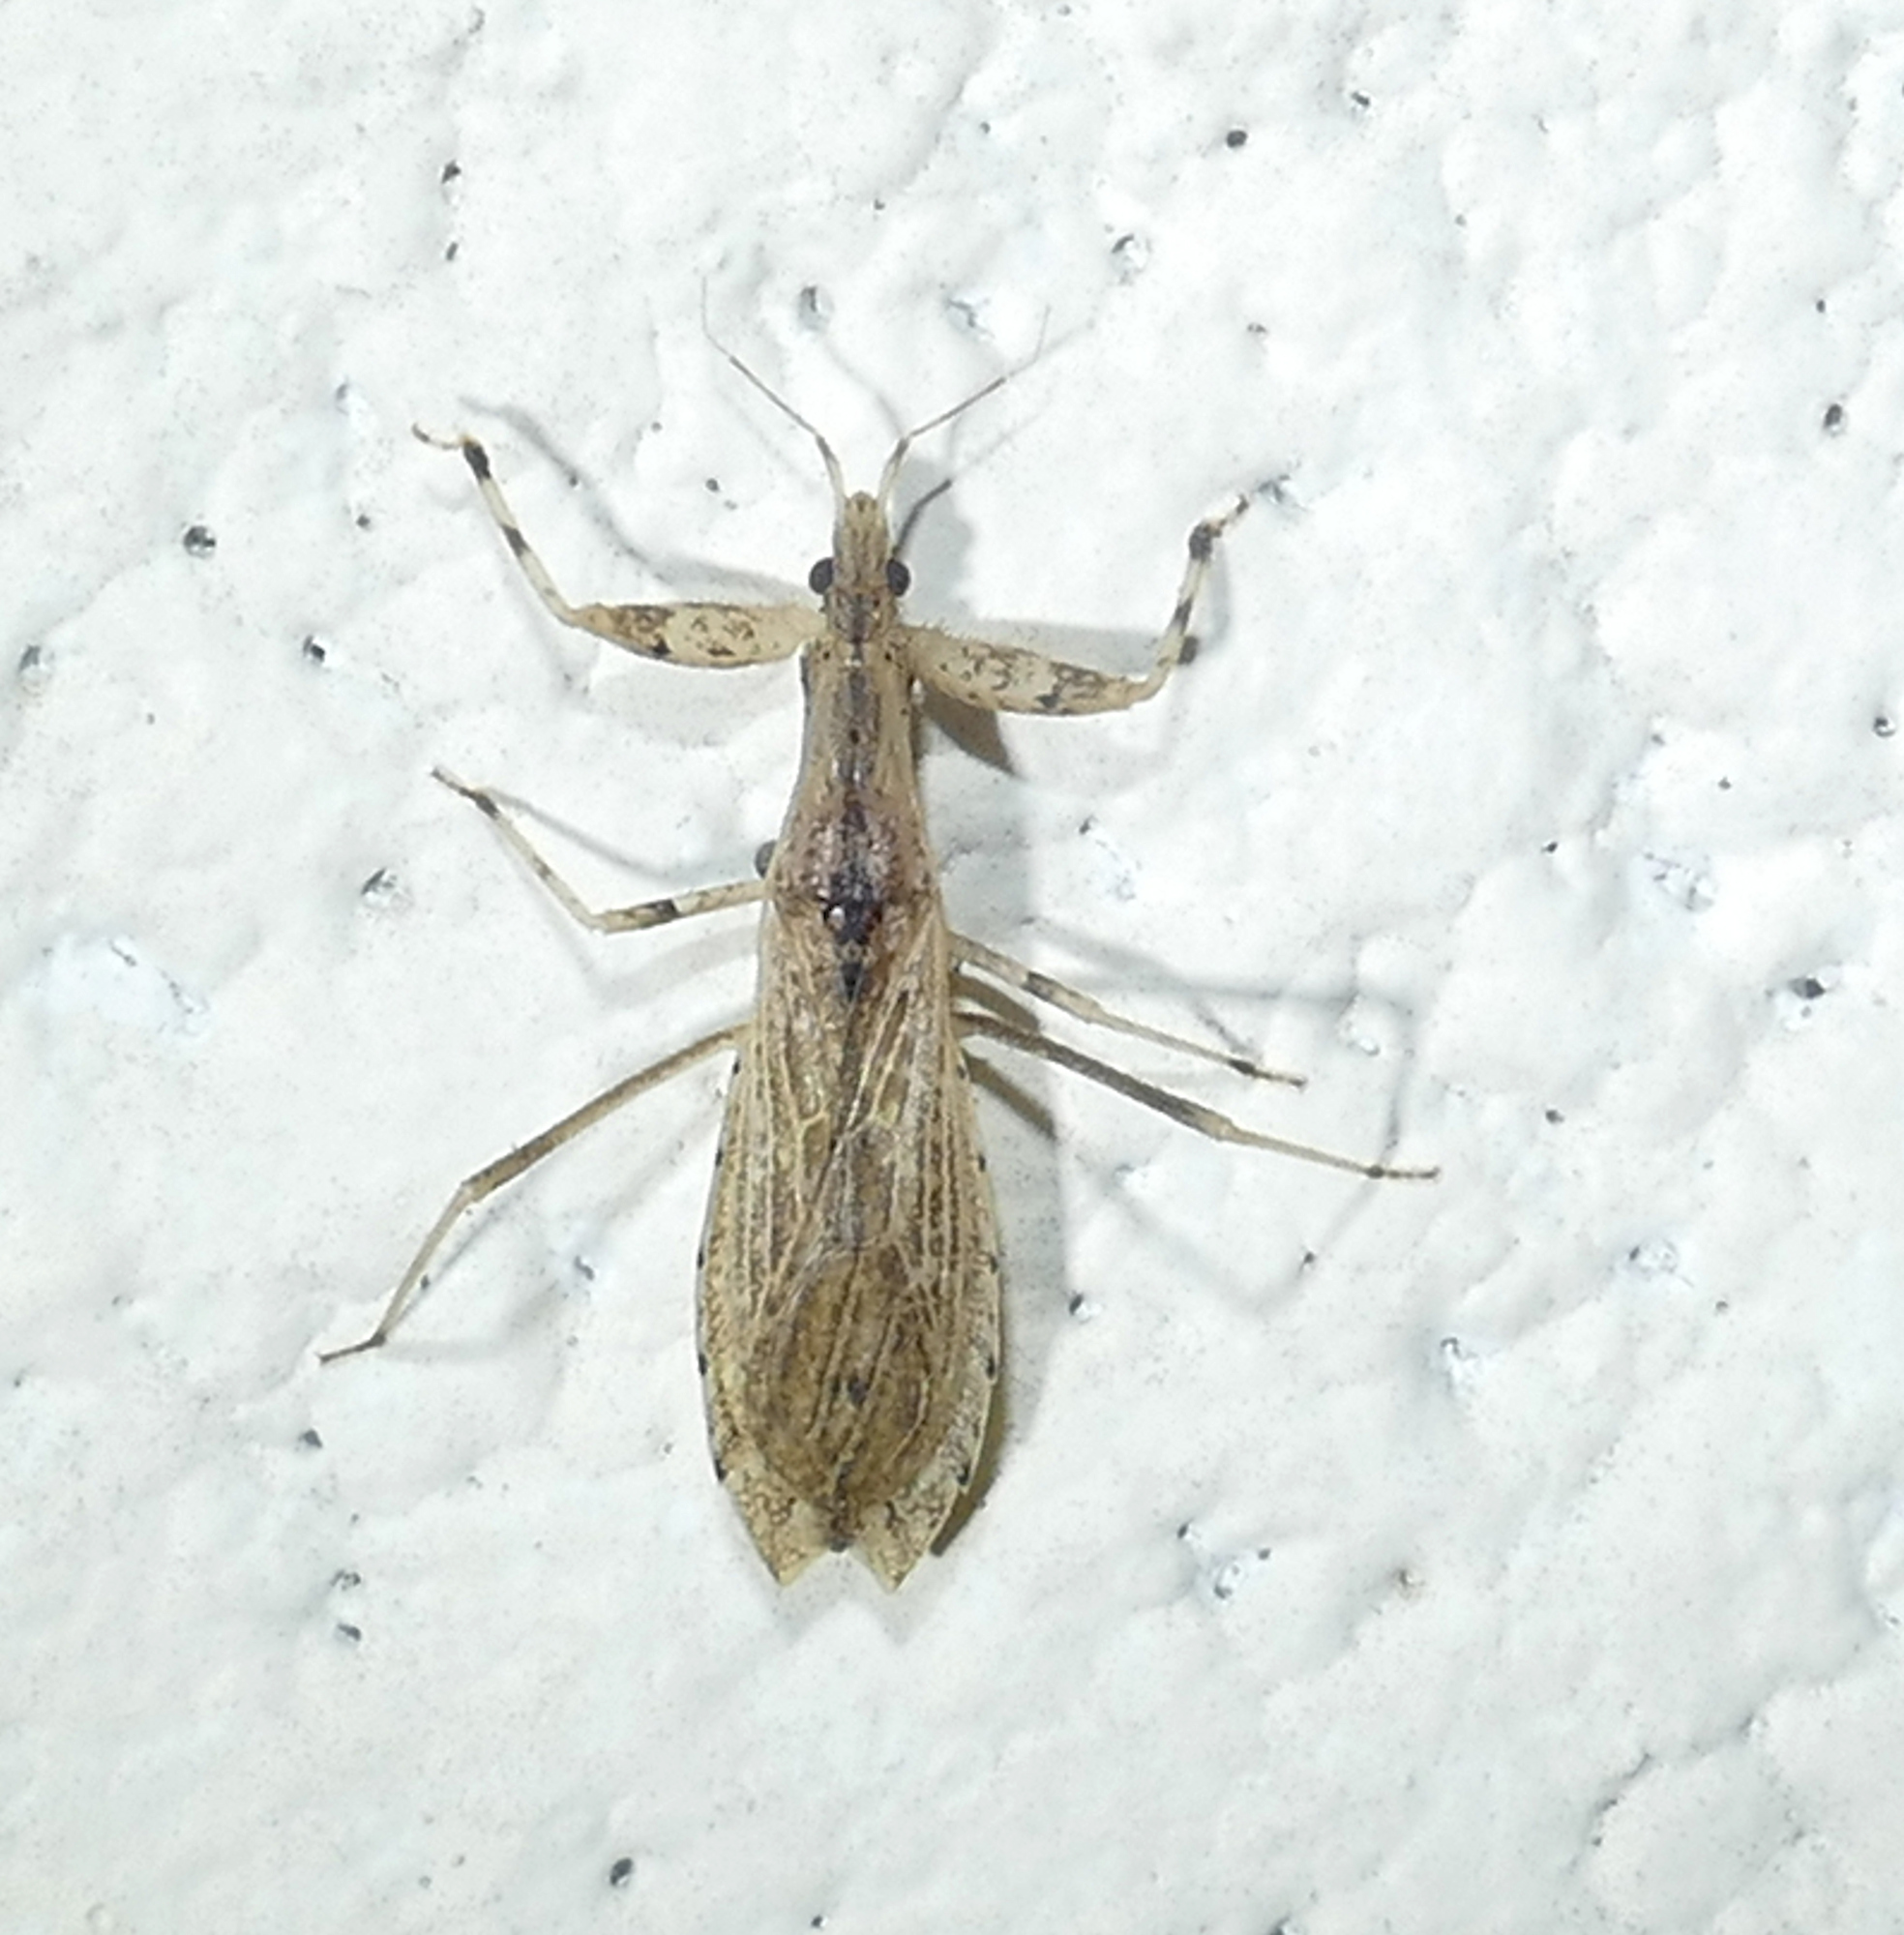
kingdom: Animalia
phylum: Arthropoda
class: Insecta
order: Hemiptera
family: Reduviidae
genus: Ctenotrachelus
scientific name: Ctenotrachelus shermani
